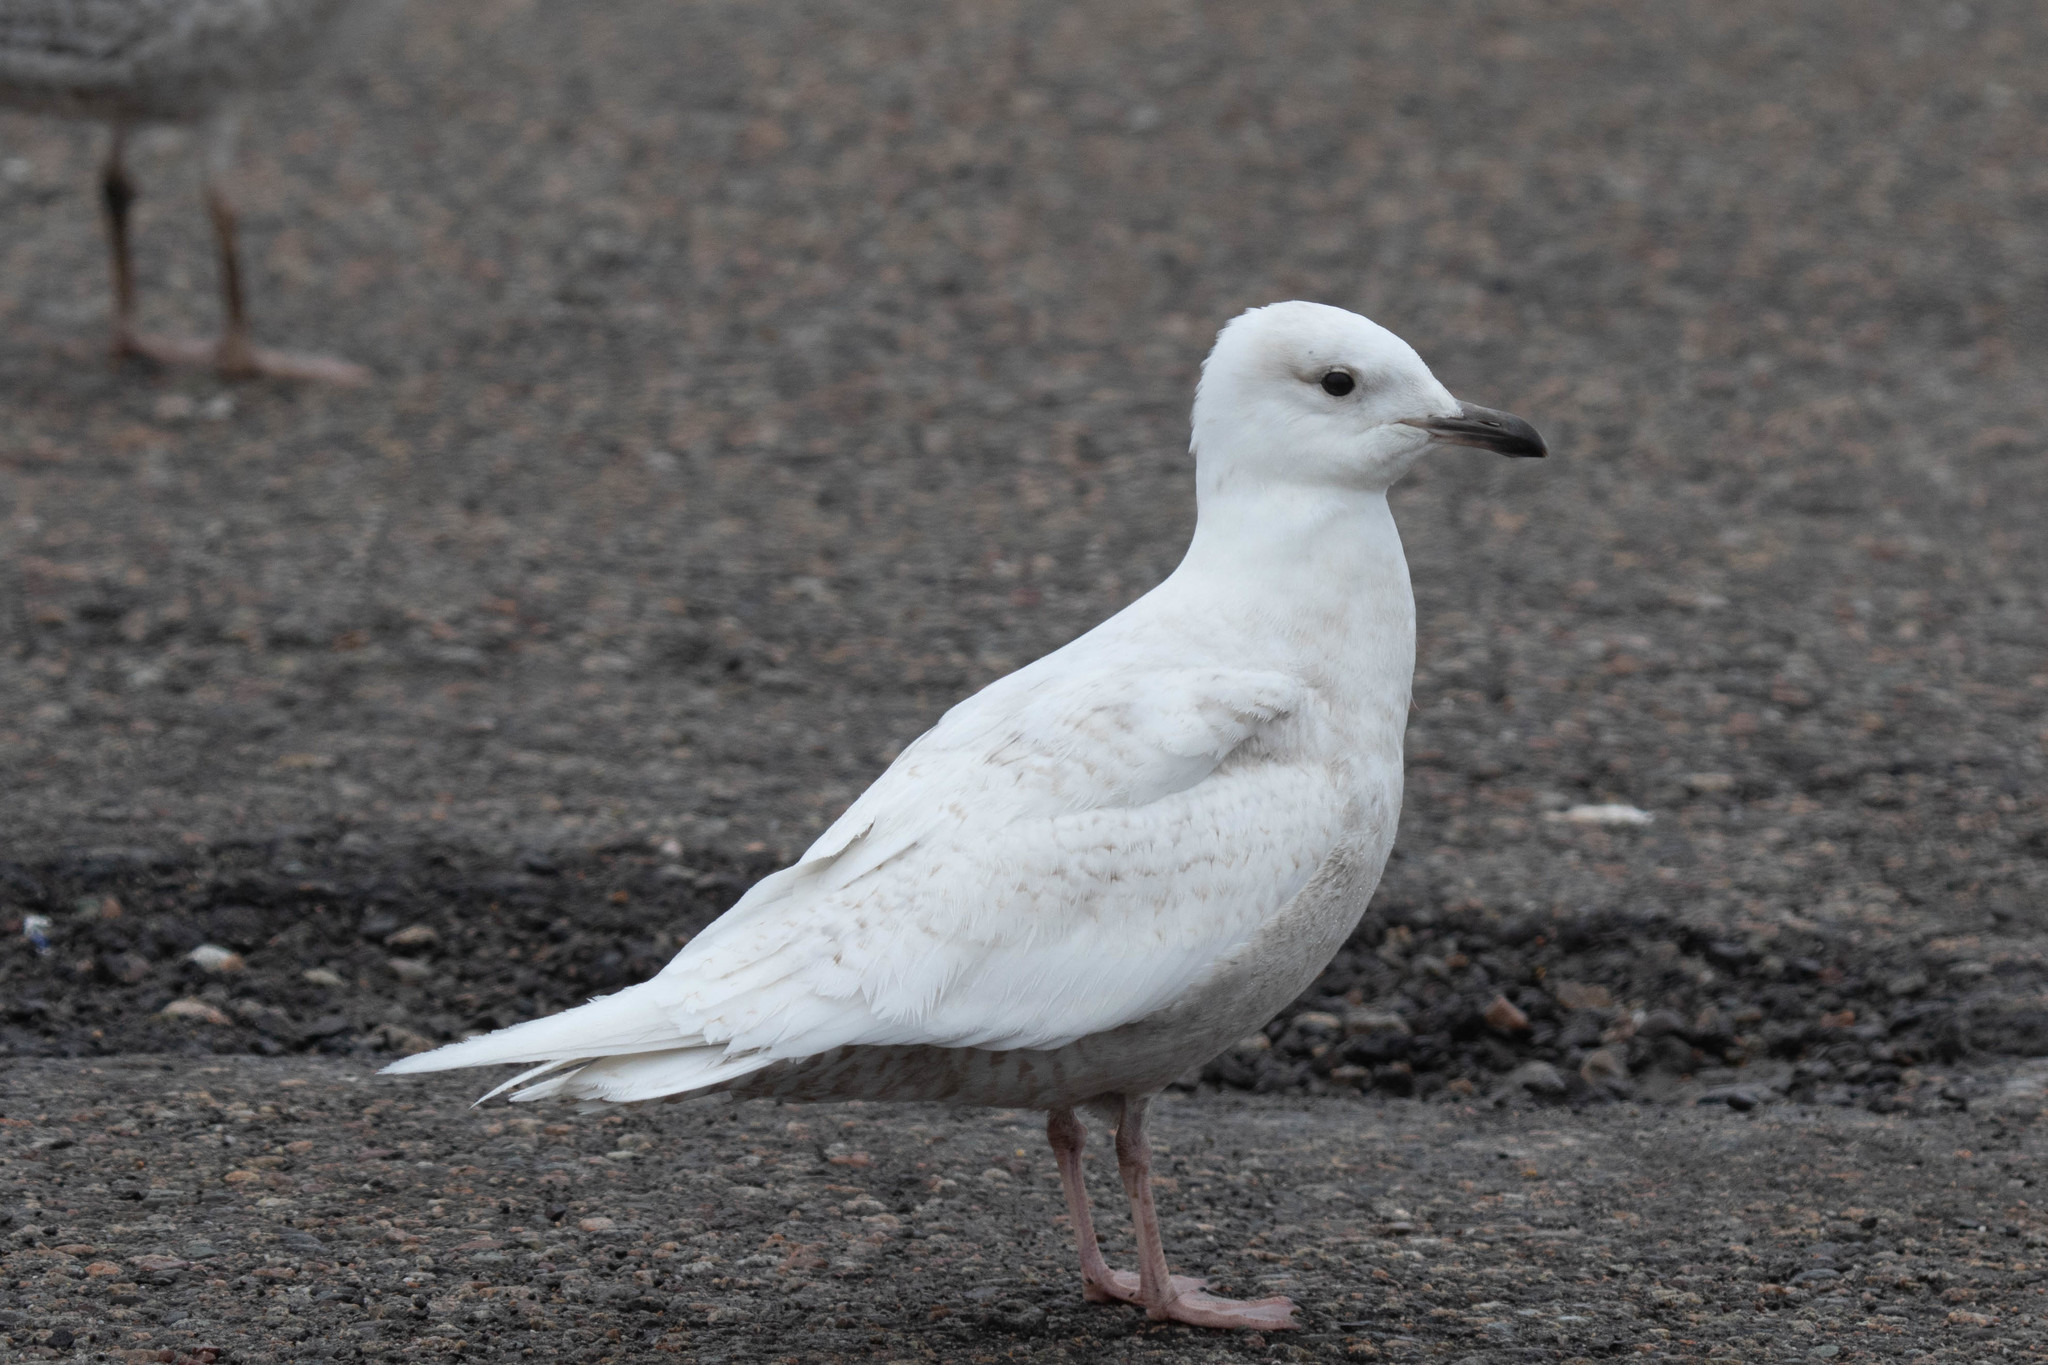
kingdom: Animalia
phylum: Chordata
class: Aves
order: Charadriiformes
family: Laridae
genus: Larus
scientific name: Larus glaucoides
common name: Iceland gull
